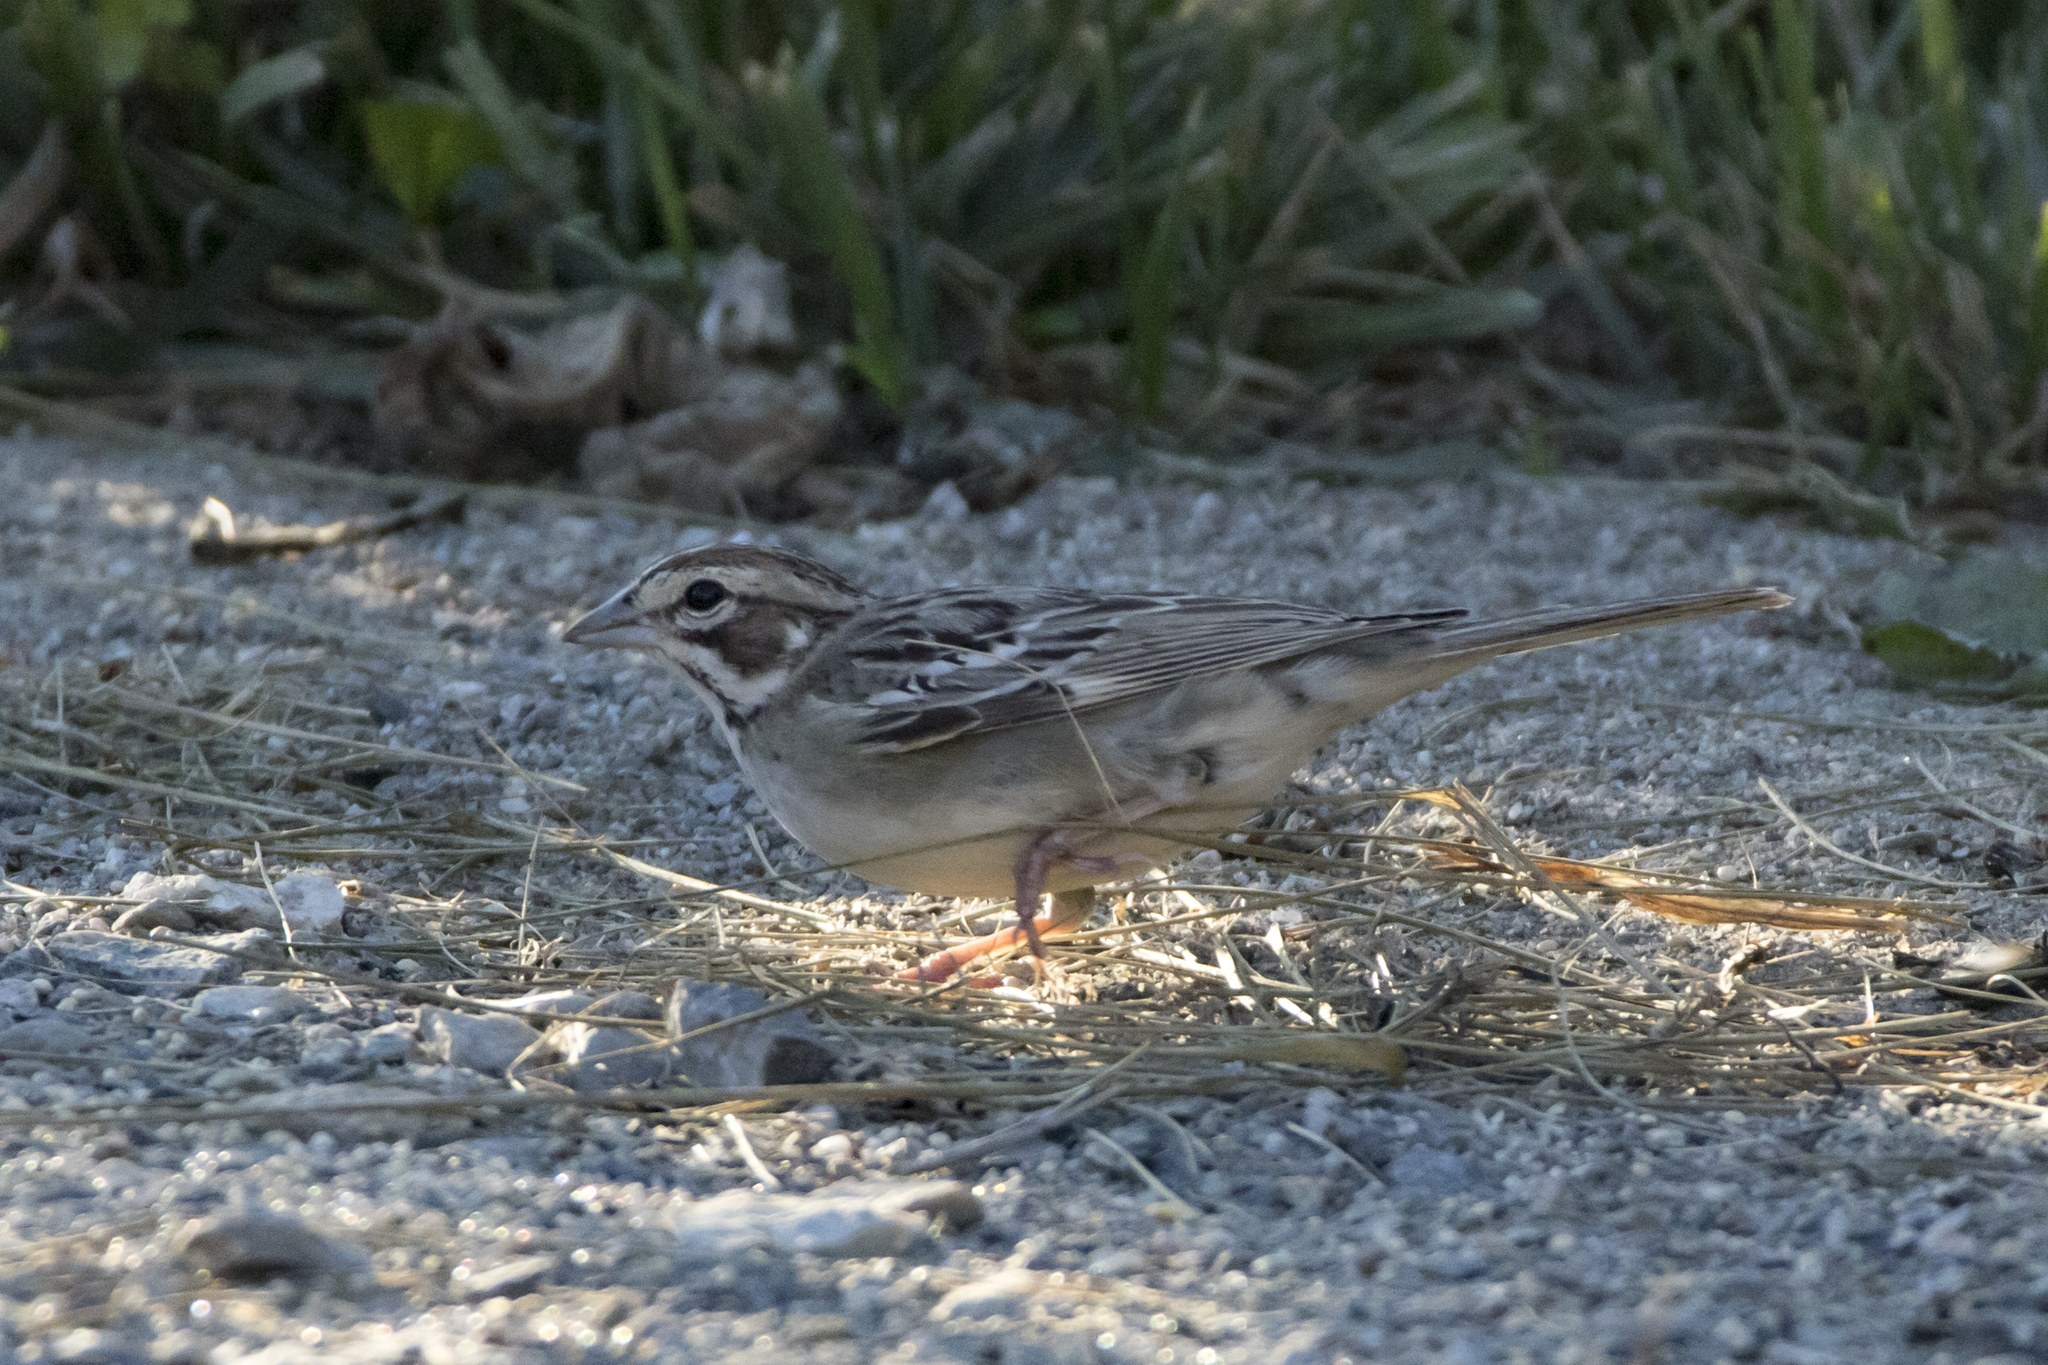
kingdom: Animalia
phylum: Chordata
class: Aves
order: Passeriformes
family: Passerellidae
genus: Chondestes
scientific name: Chondestes grammacus
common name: Lark sparrow
